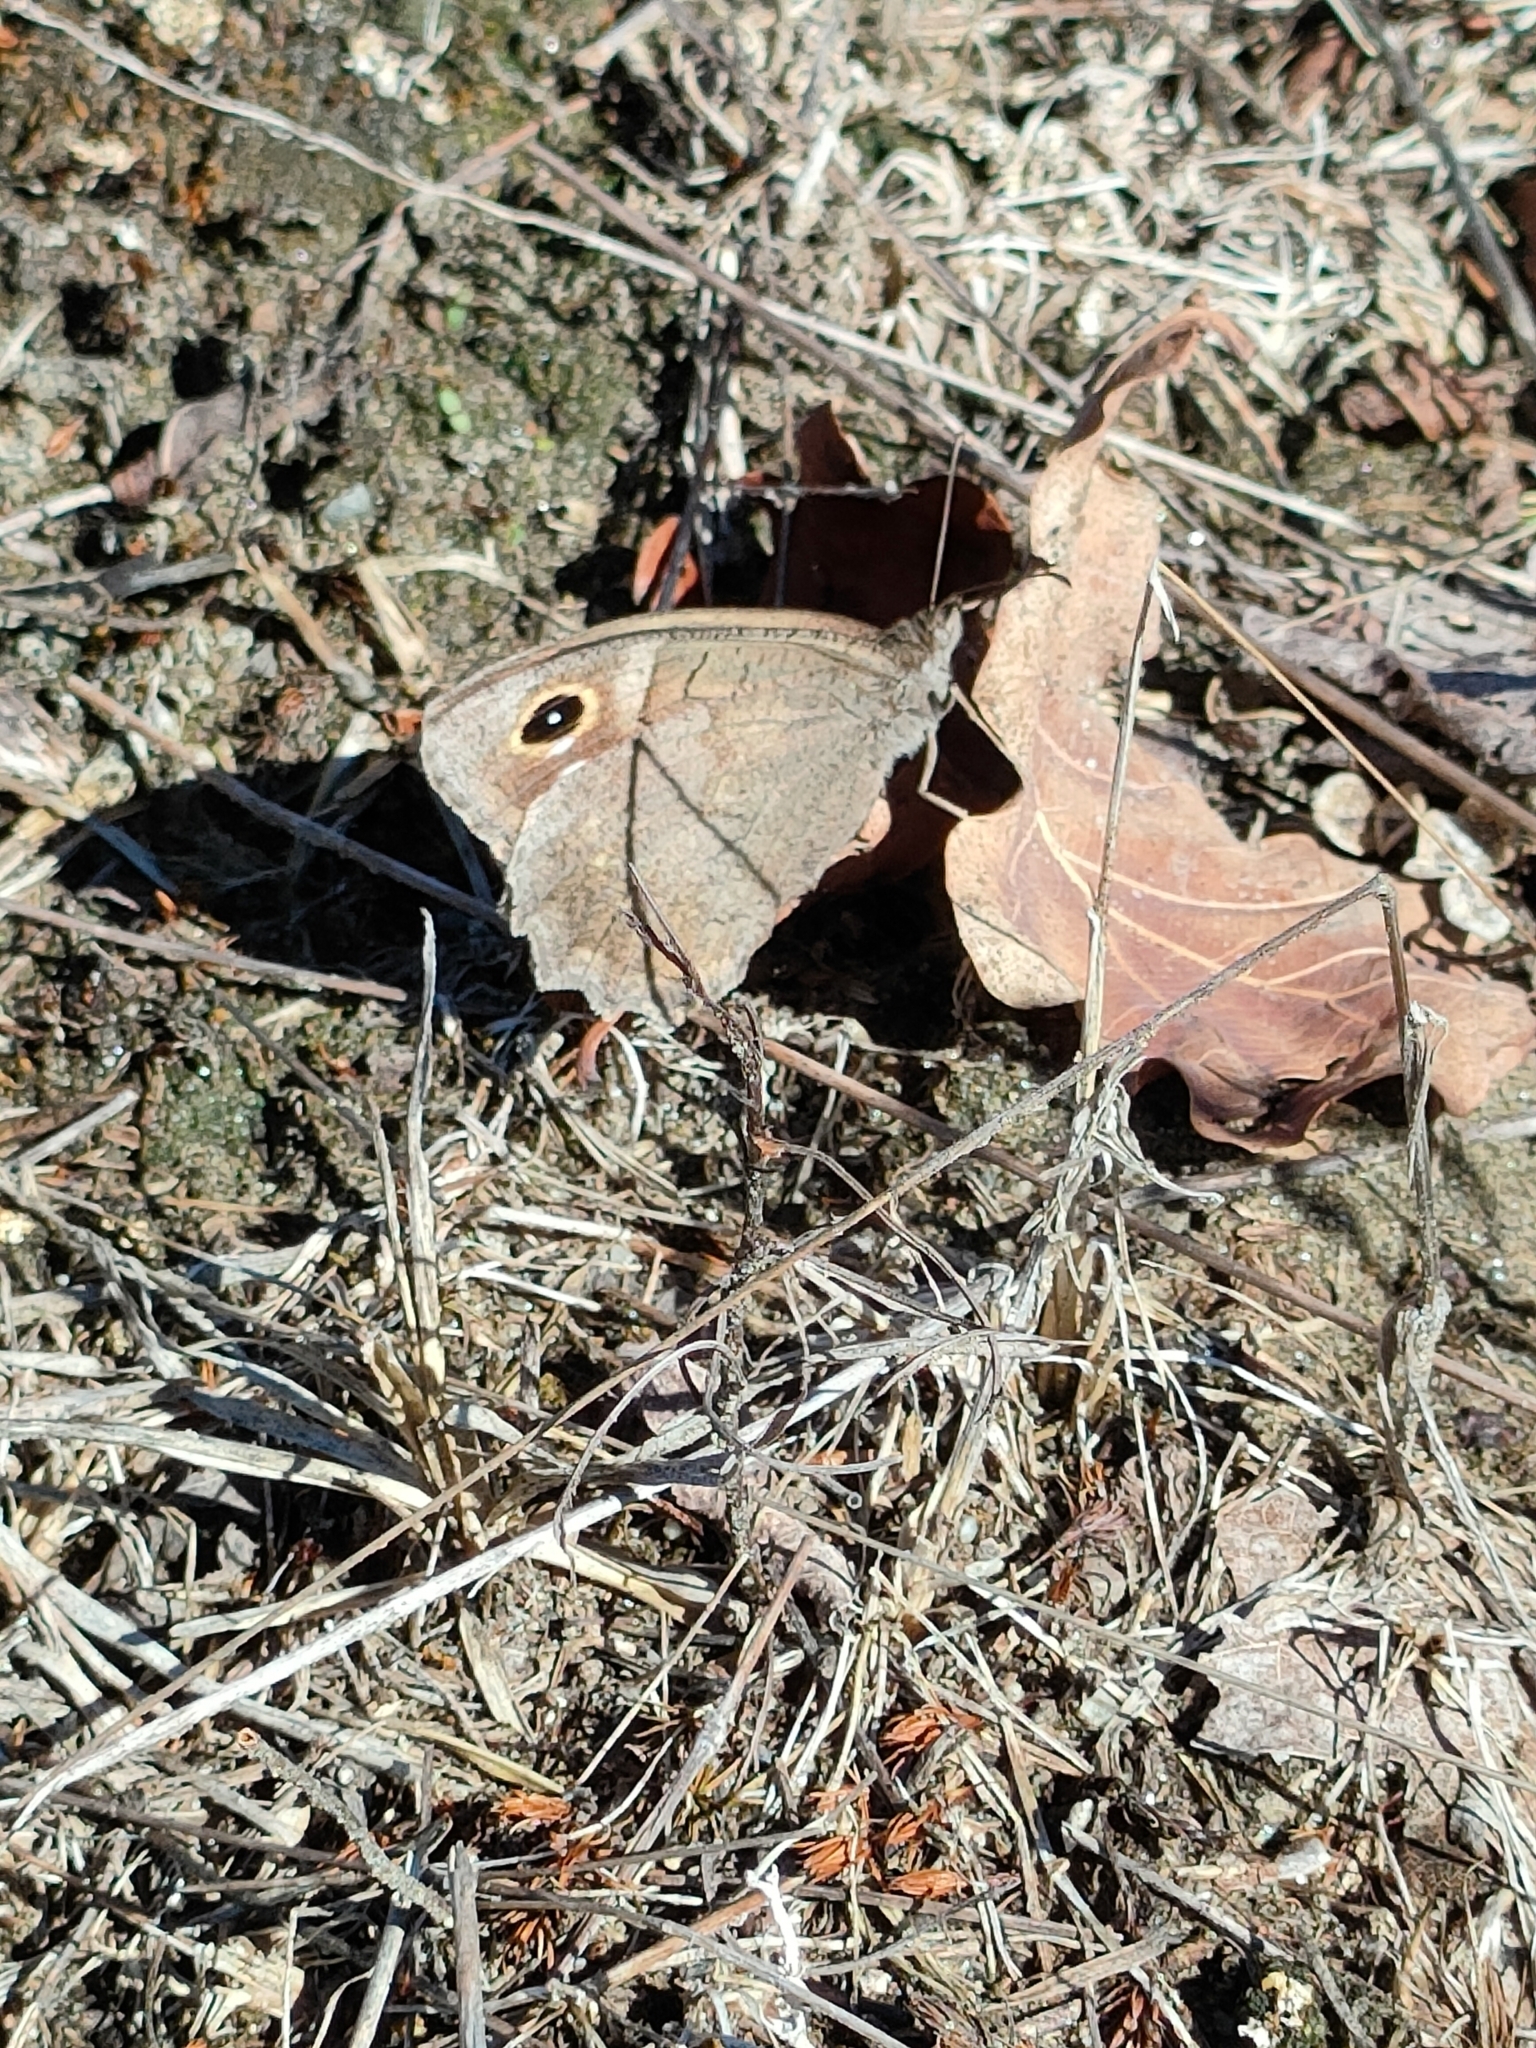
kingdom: Animalia
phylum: Arthropoda
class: Insecta
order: Lepidoptera
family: Nymphalidae
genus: Hipparchia
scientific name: Hipparchia statilinus
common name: Tree grayling
